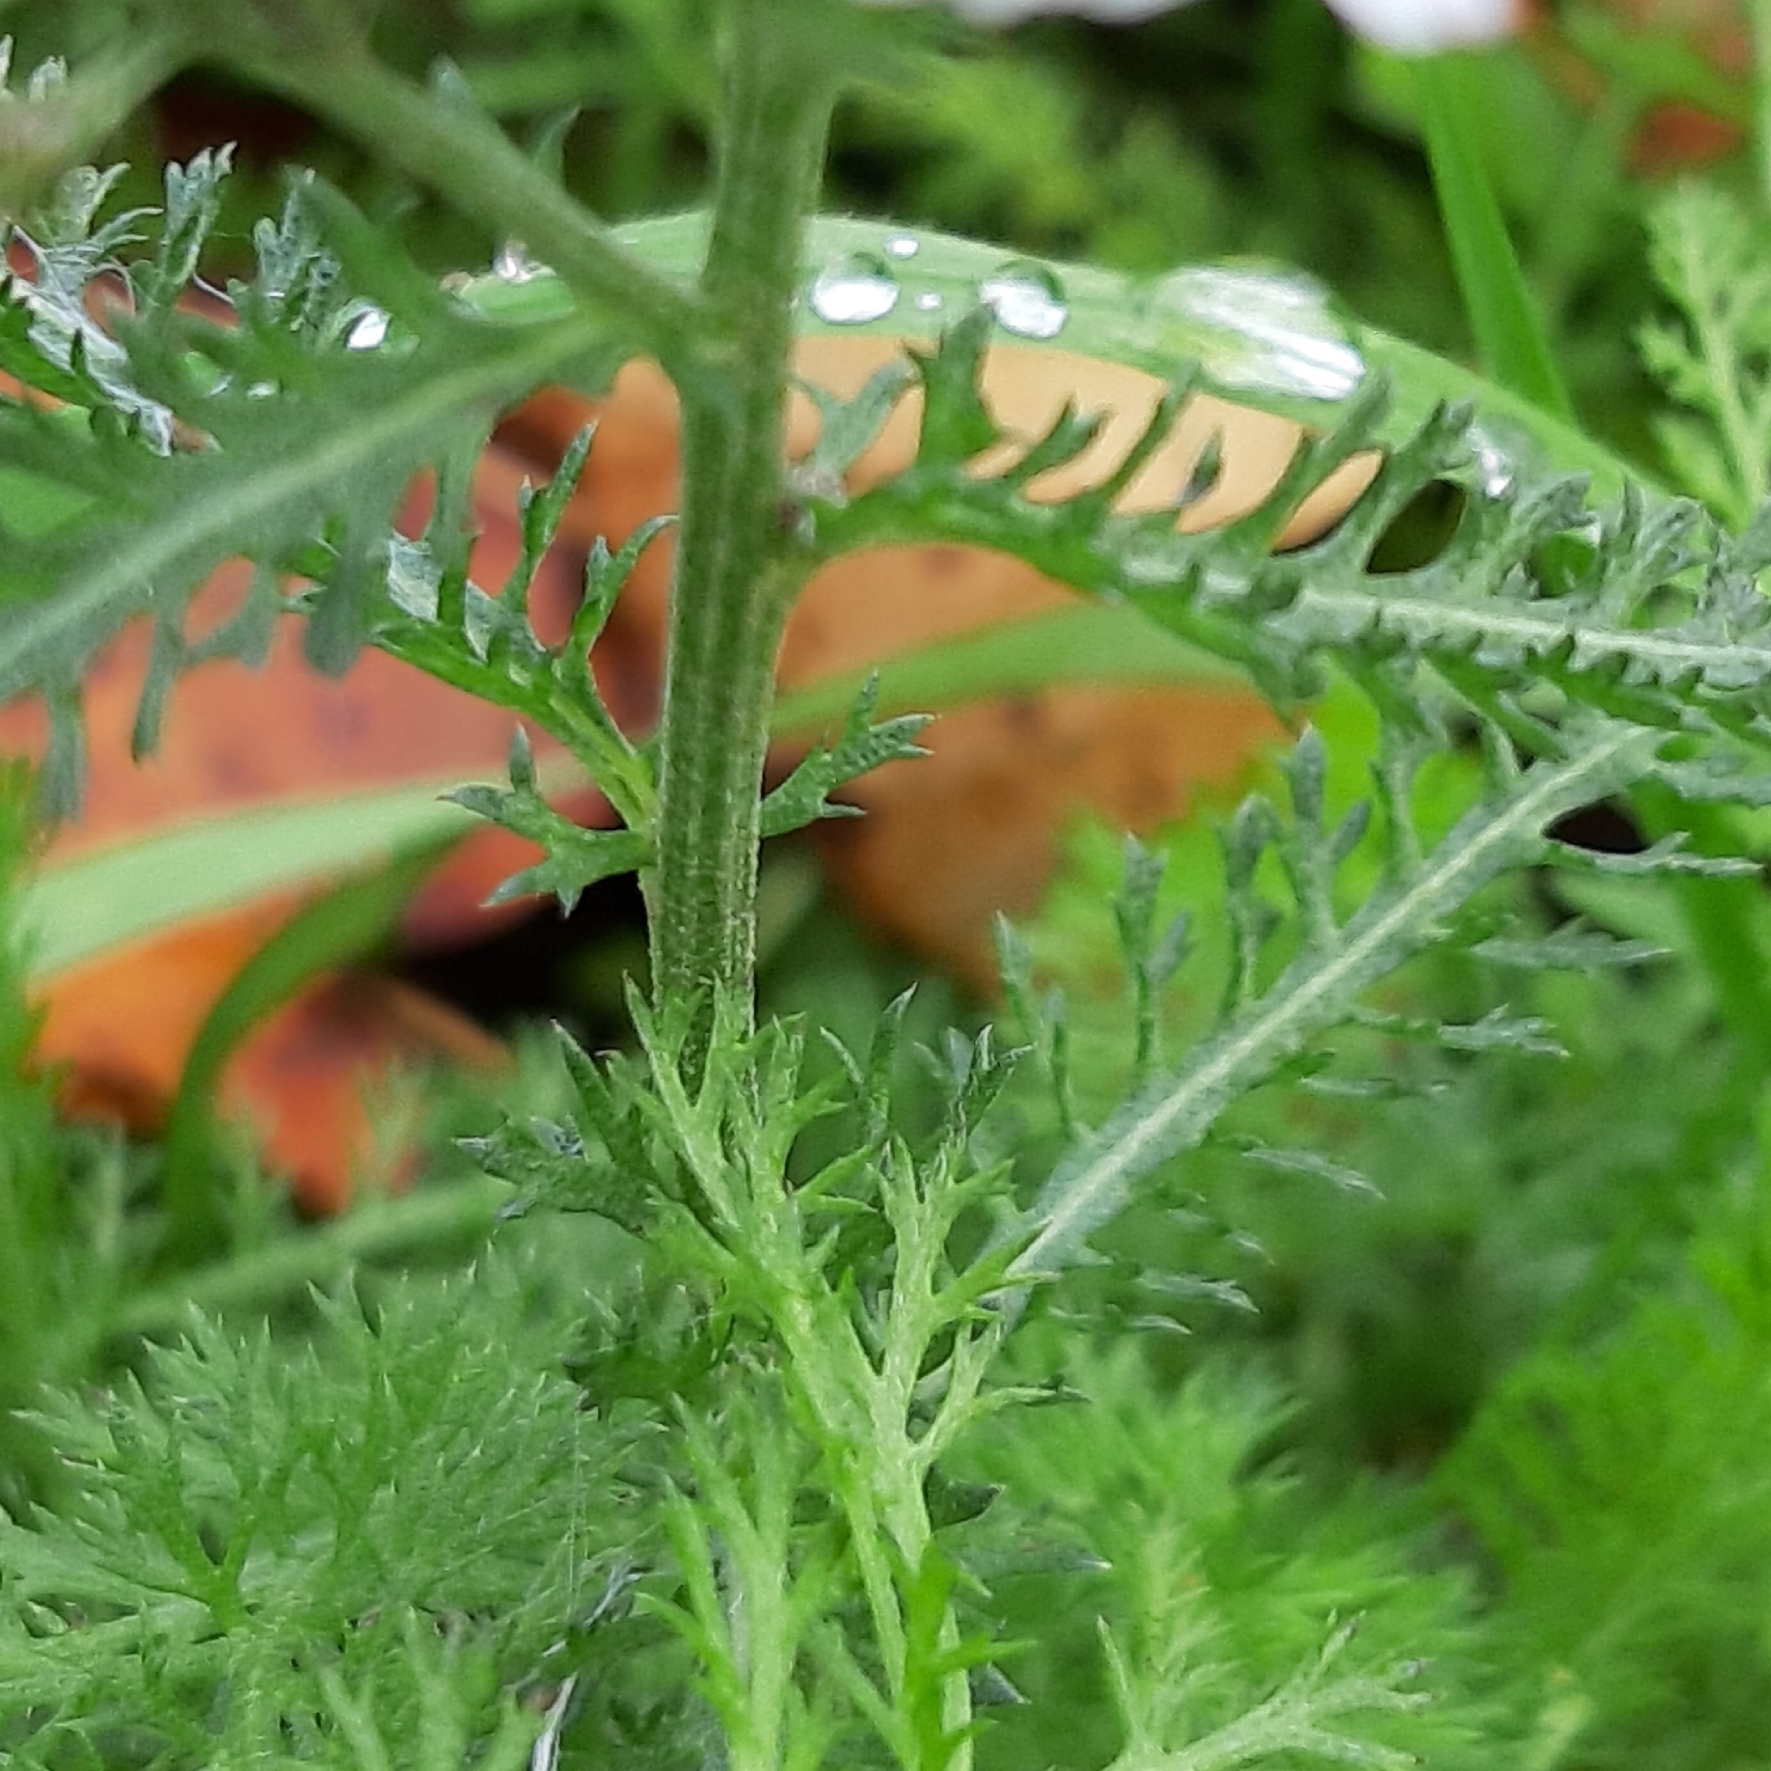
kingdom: Plantae
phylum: Tracheophyta
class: Magnoliopsida
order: Asterales
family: Asteraceae
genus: Achillea
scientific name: Achillea millefolium
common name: Yarrow
